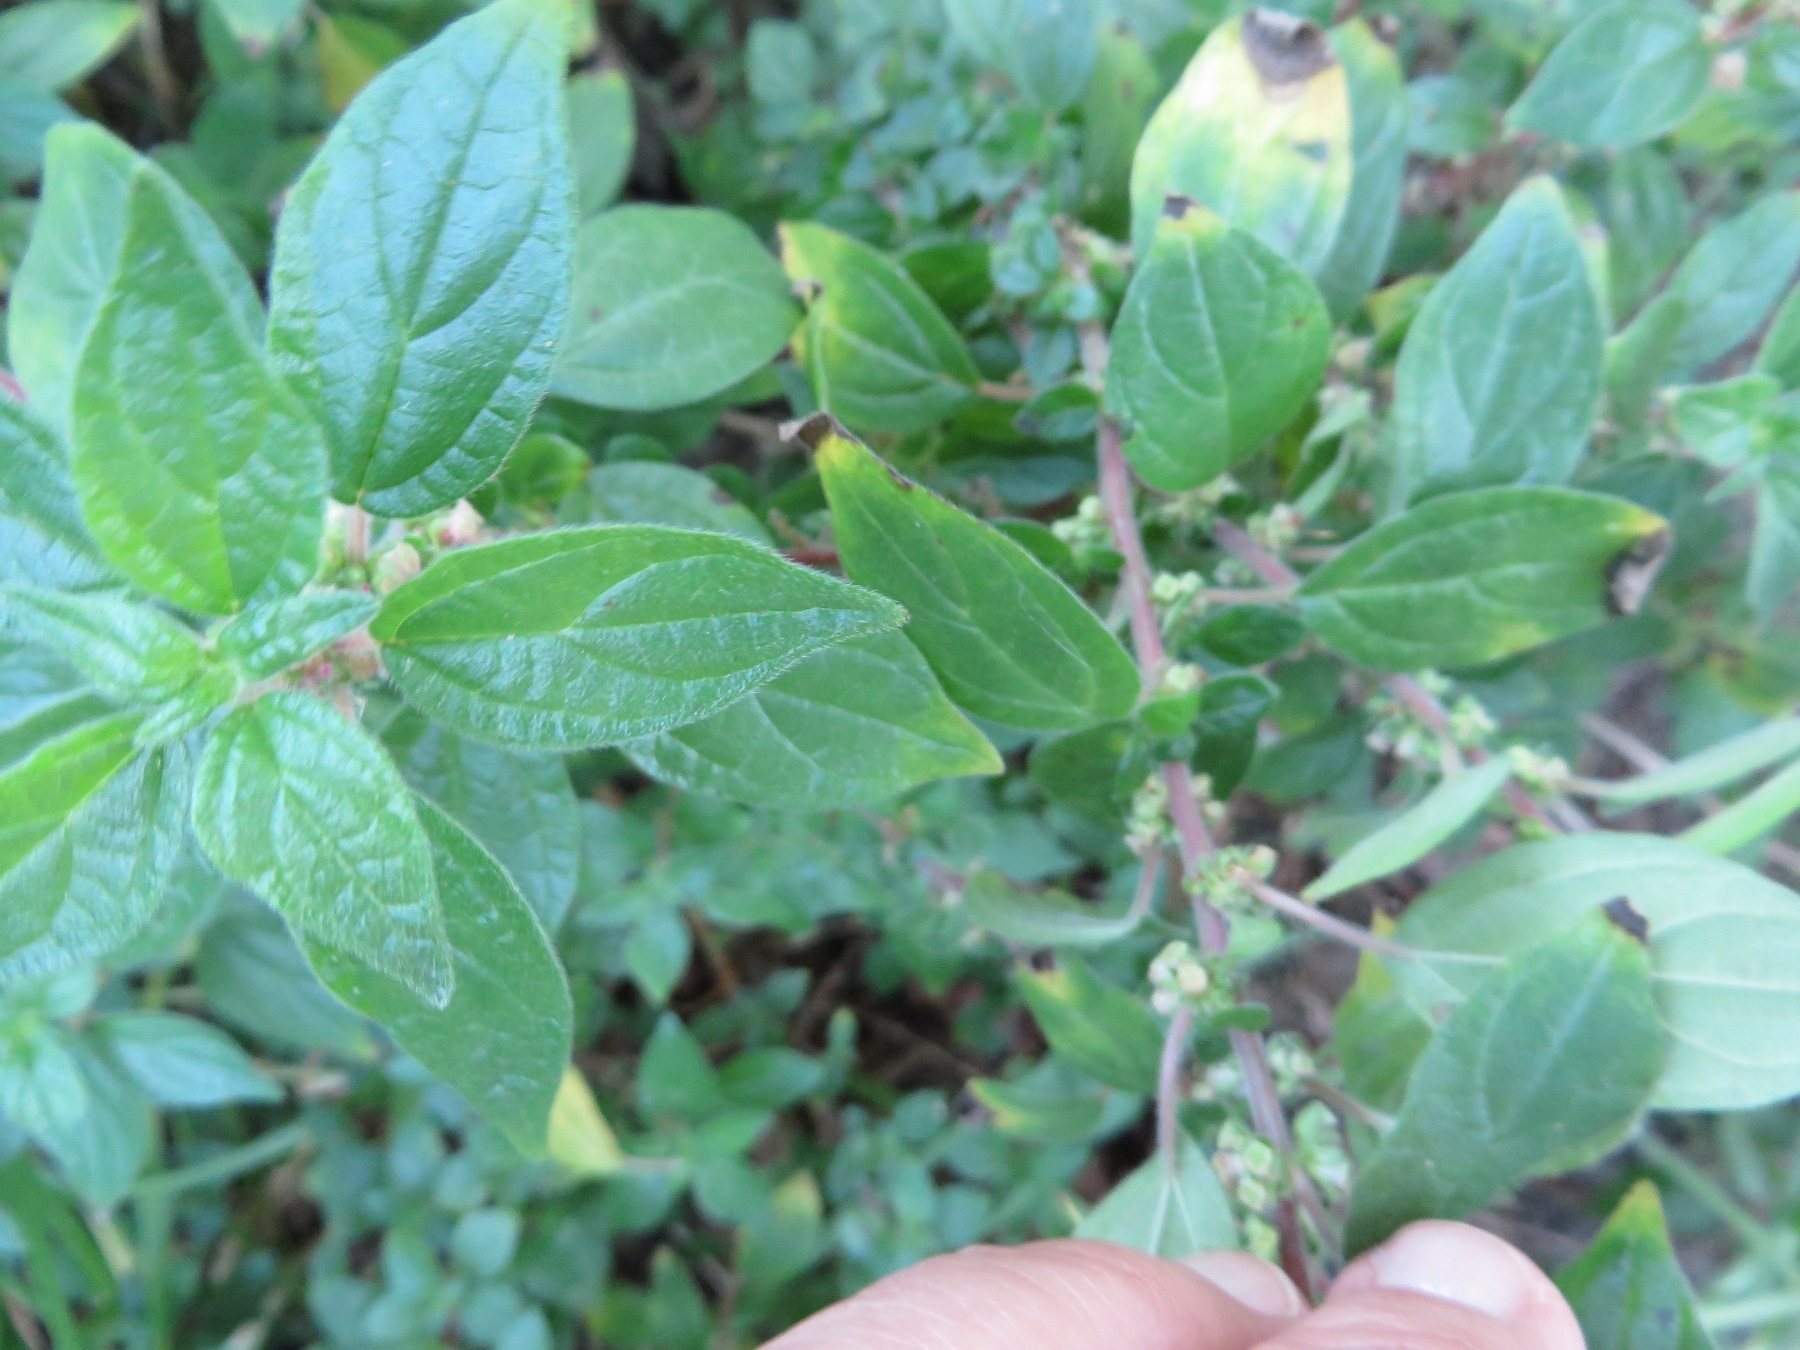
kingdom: Plantae
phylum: Tracheophyta
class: Magnoliopsida
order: Rosales
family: Urticaceae
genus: Parietaria
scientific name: Parietaria judaica
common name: Pellitory-of-the-wall
